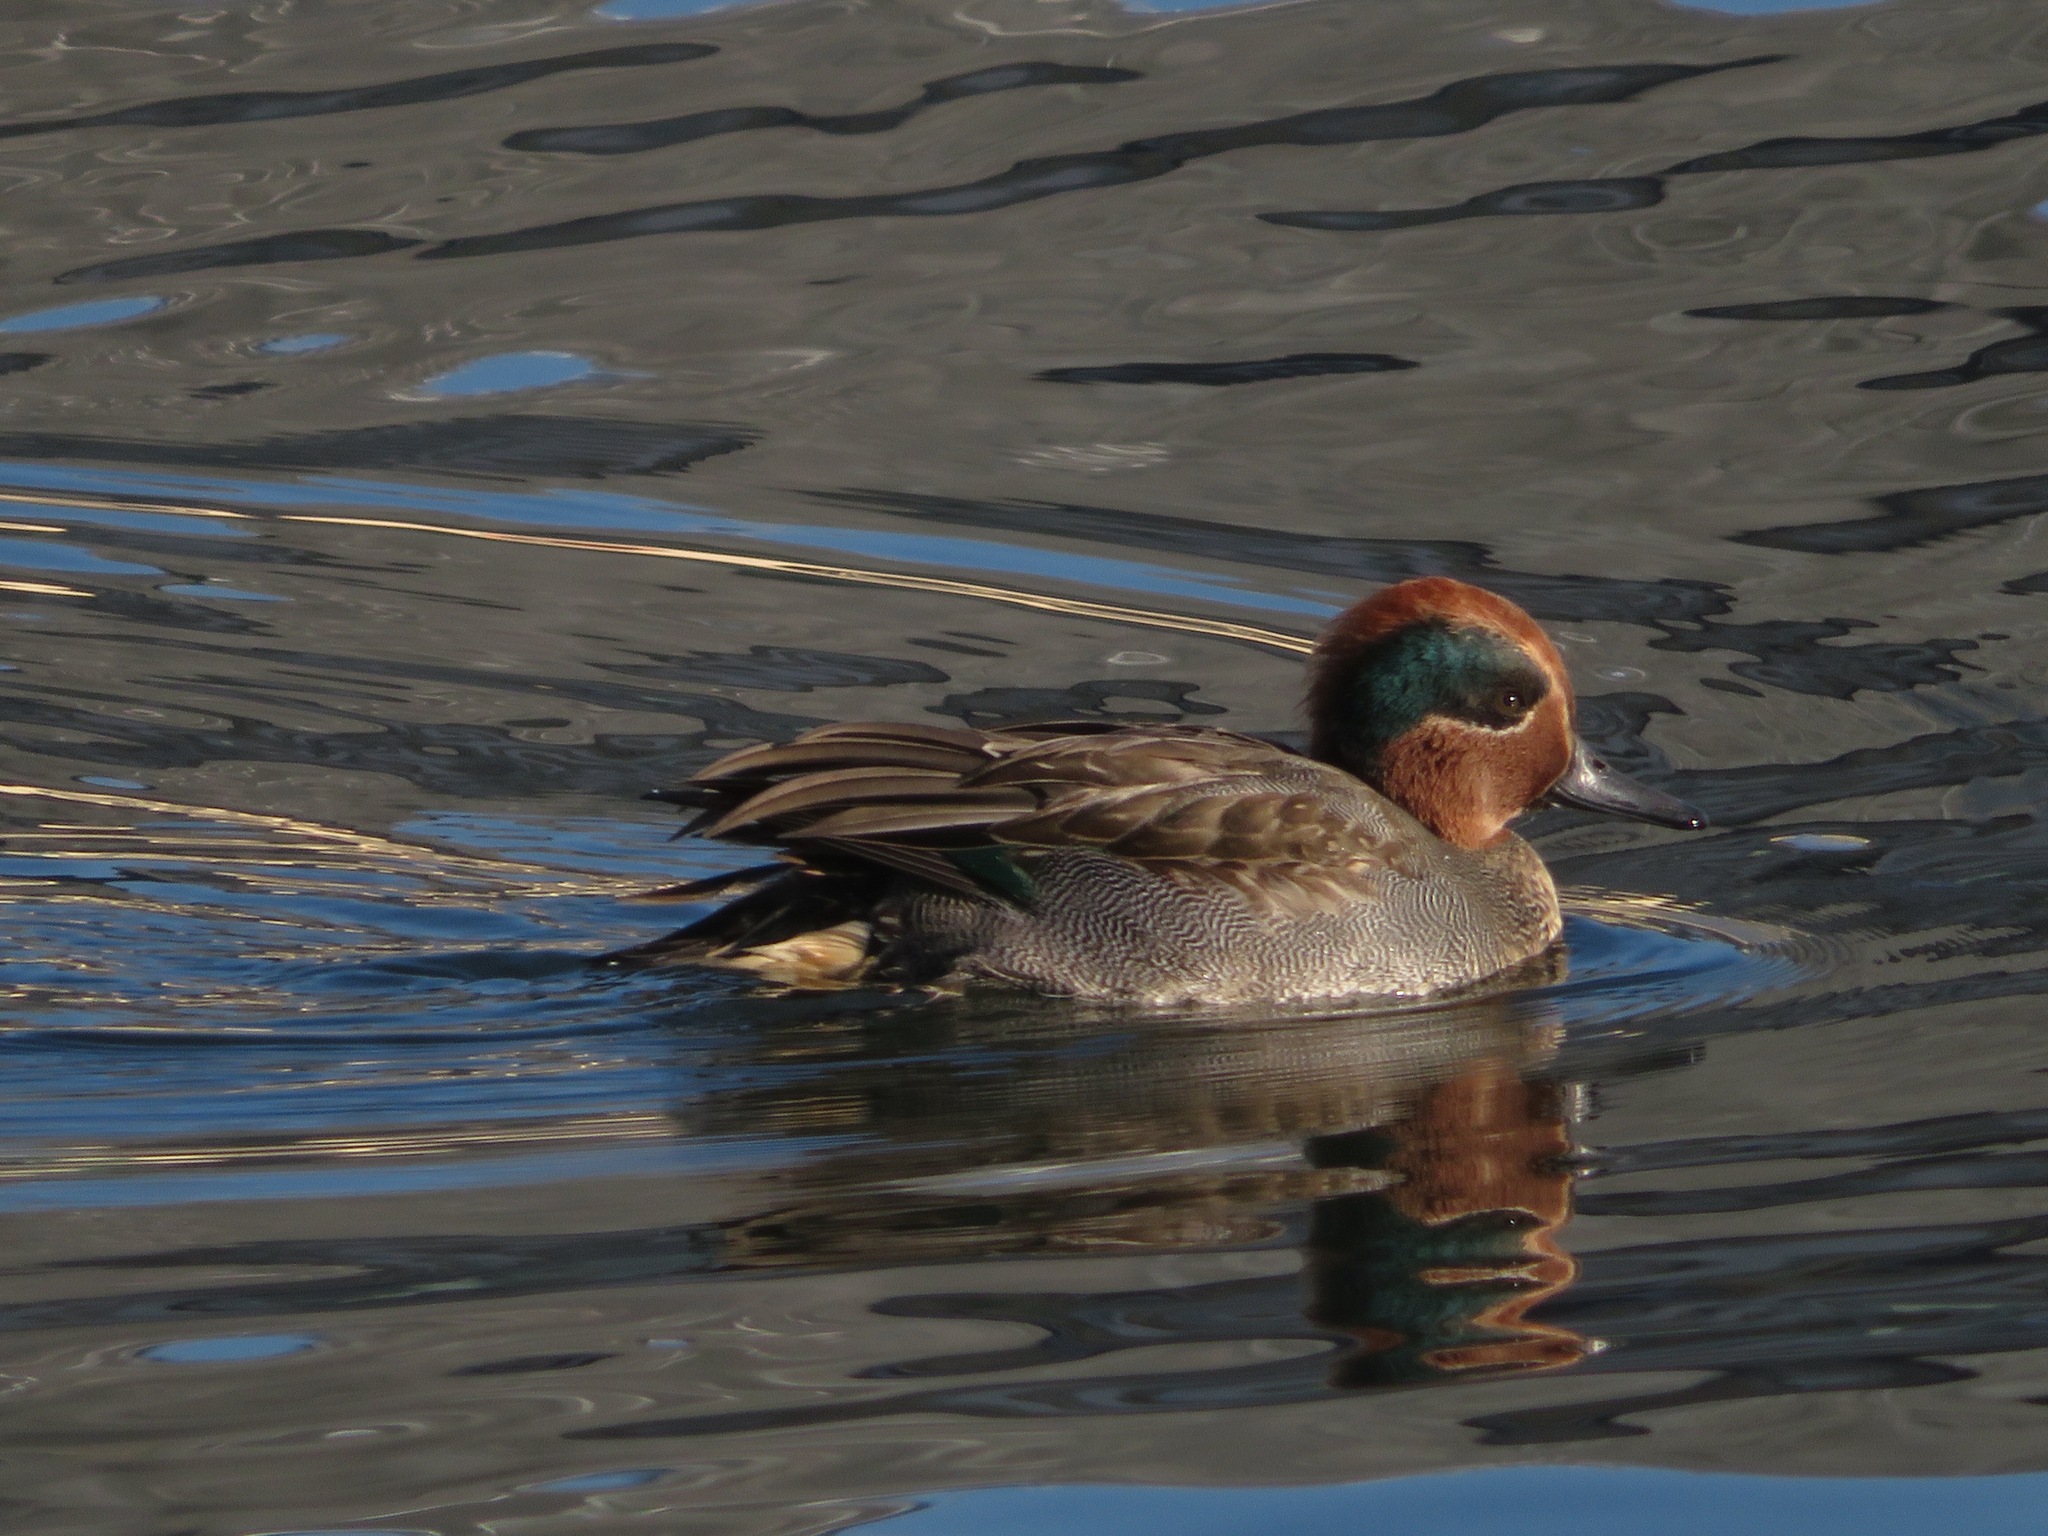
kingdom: Animalia
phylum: Chordata
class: Aves
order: Anseriformes
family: Anatidae
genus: Anas
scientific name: Anas crecca
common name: Eurasian teal
